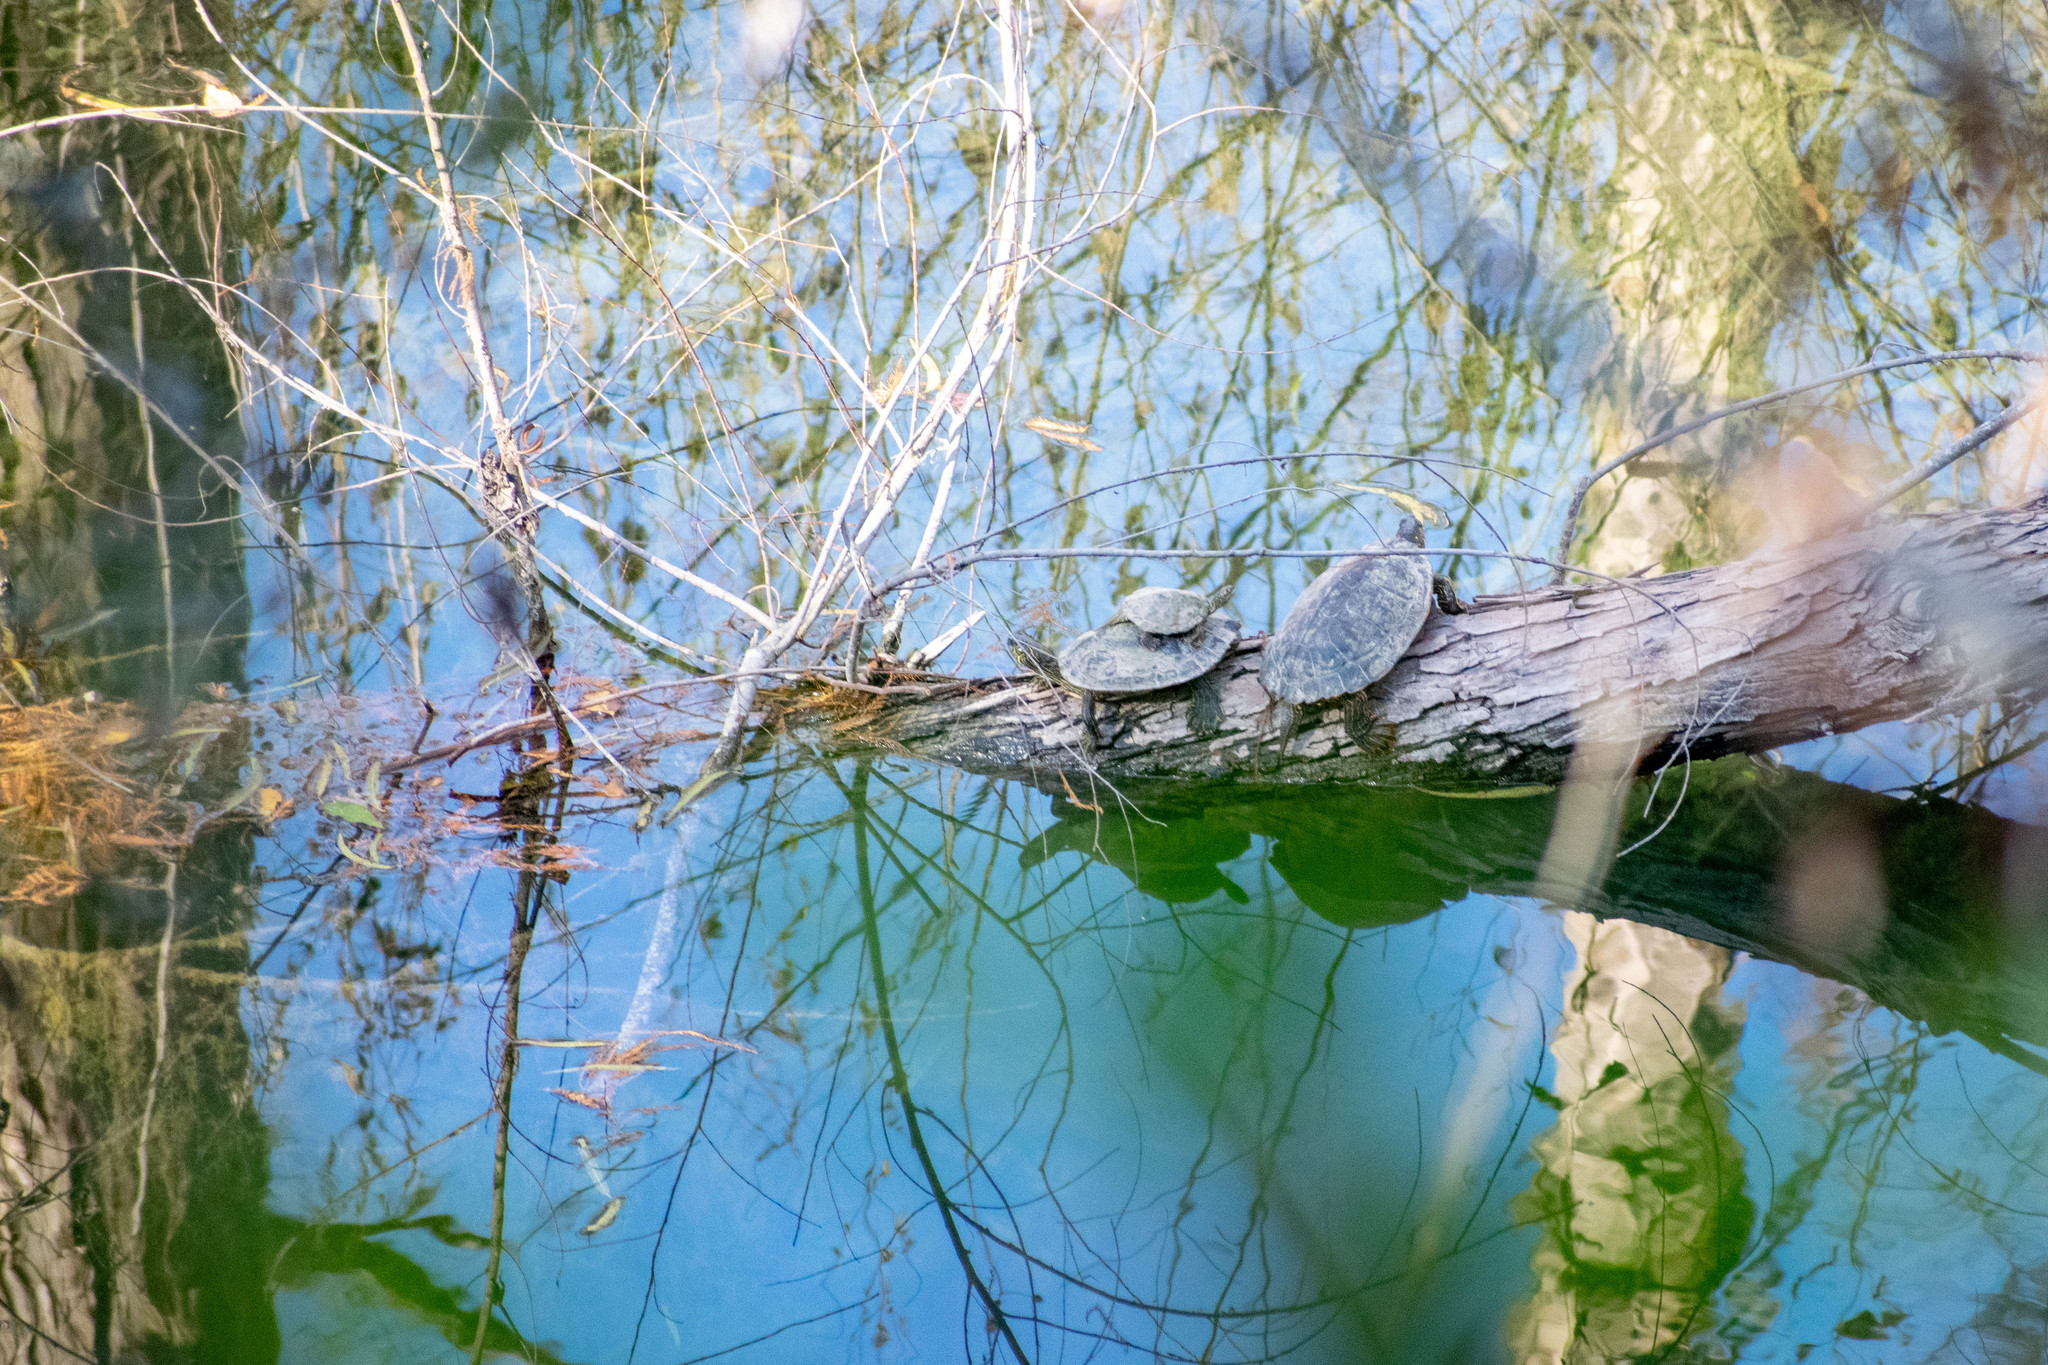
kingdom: Animalia
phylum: Chordata
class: Testudines
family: Emydidae
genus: Pseudemys
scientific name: Pseudemys texana
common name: Texas river cooter
